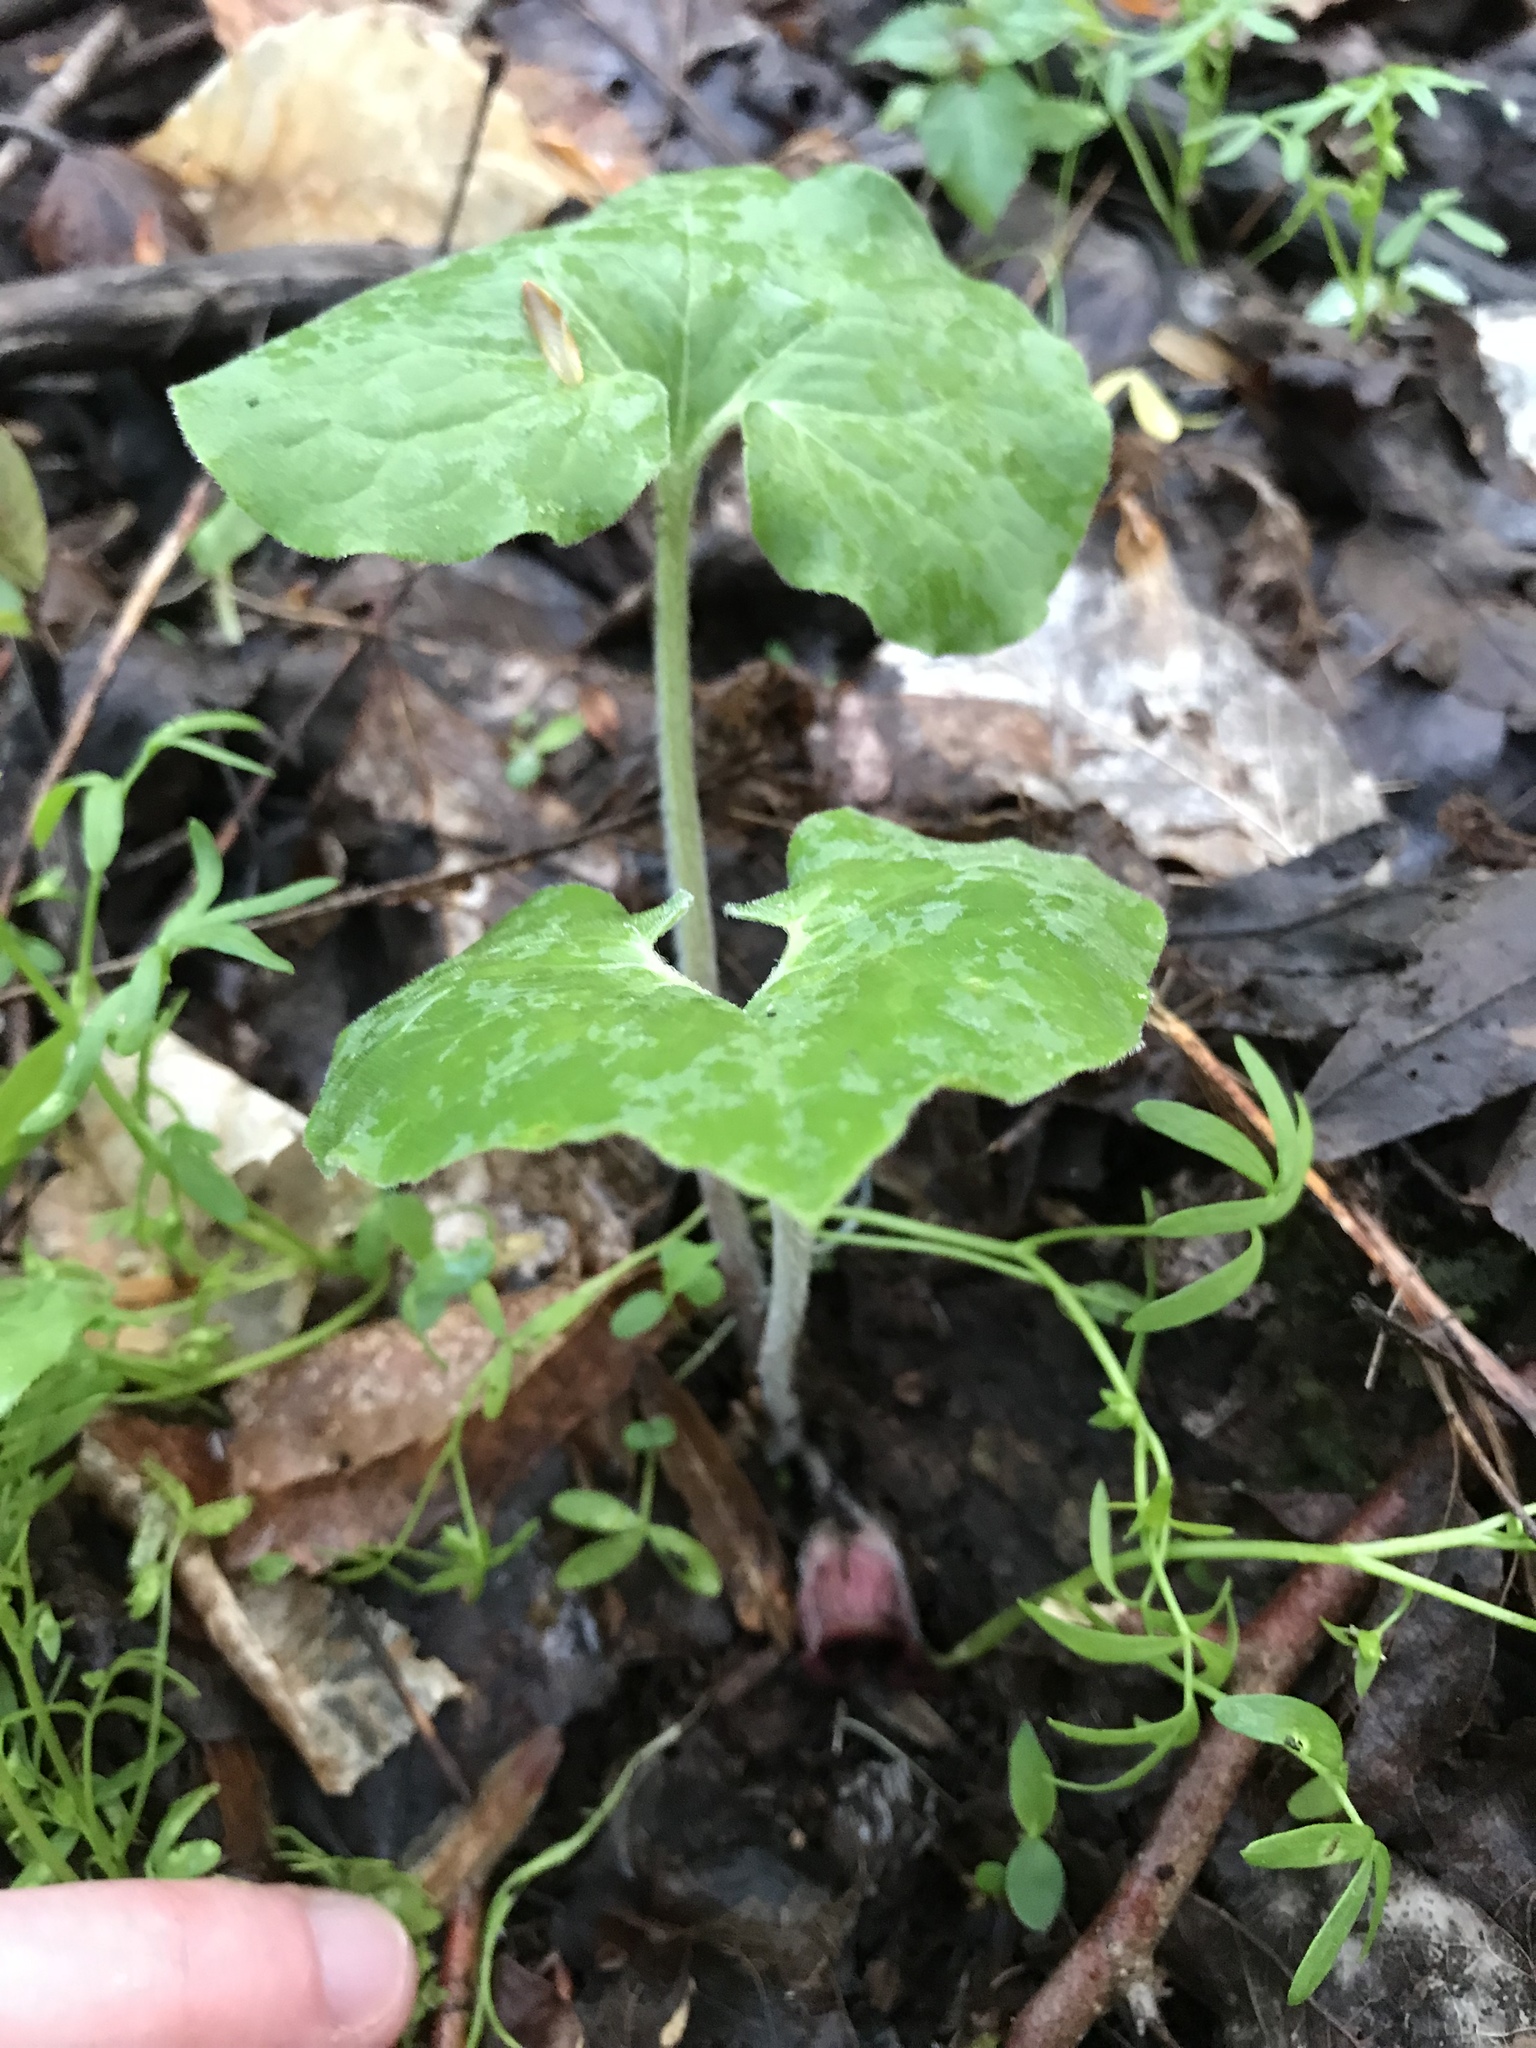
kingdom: Plantae
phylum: Tracheophyta
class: Magnoliopsida
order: Piperales
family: Aristolochiaceae
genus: Asarum
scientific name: Asarum canadense
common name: Wild ginger
